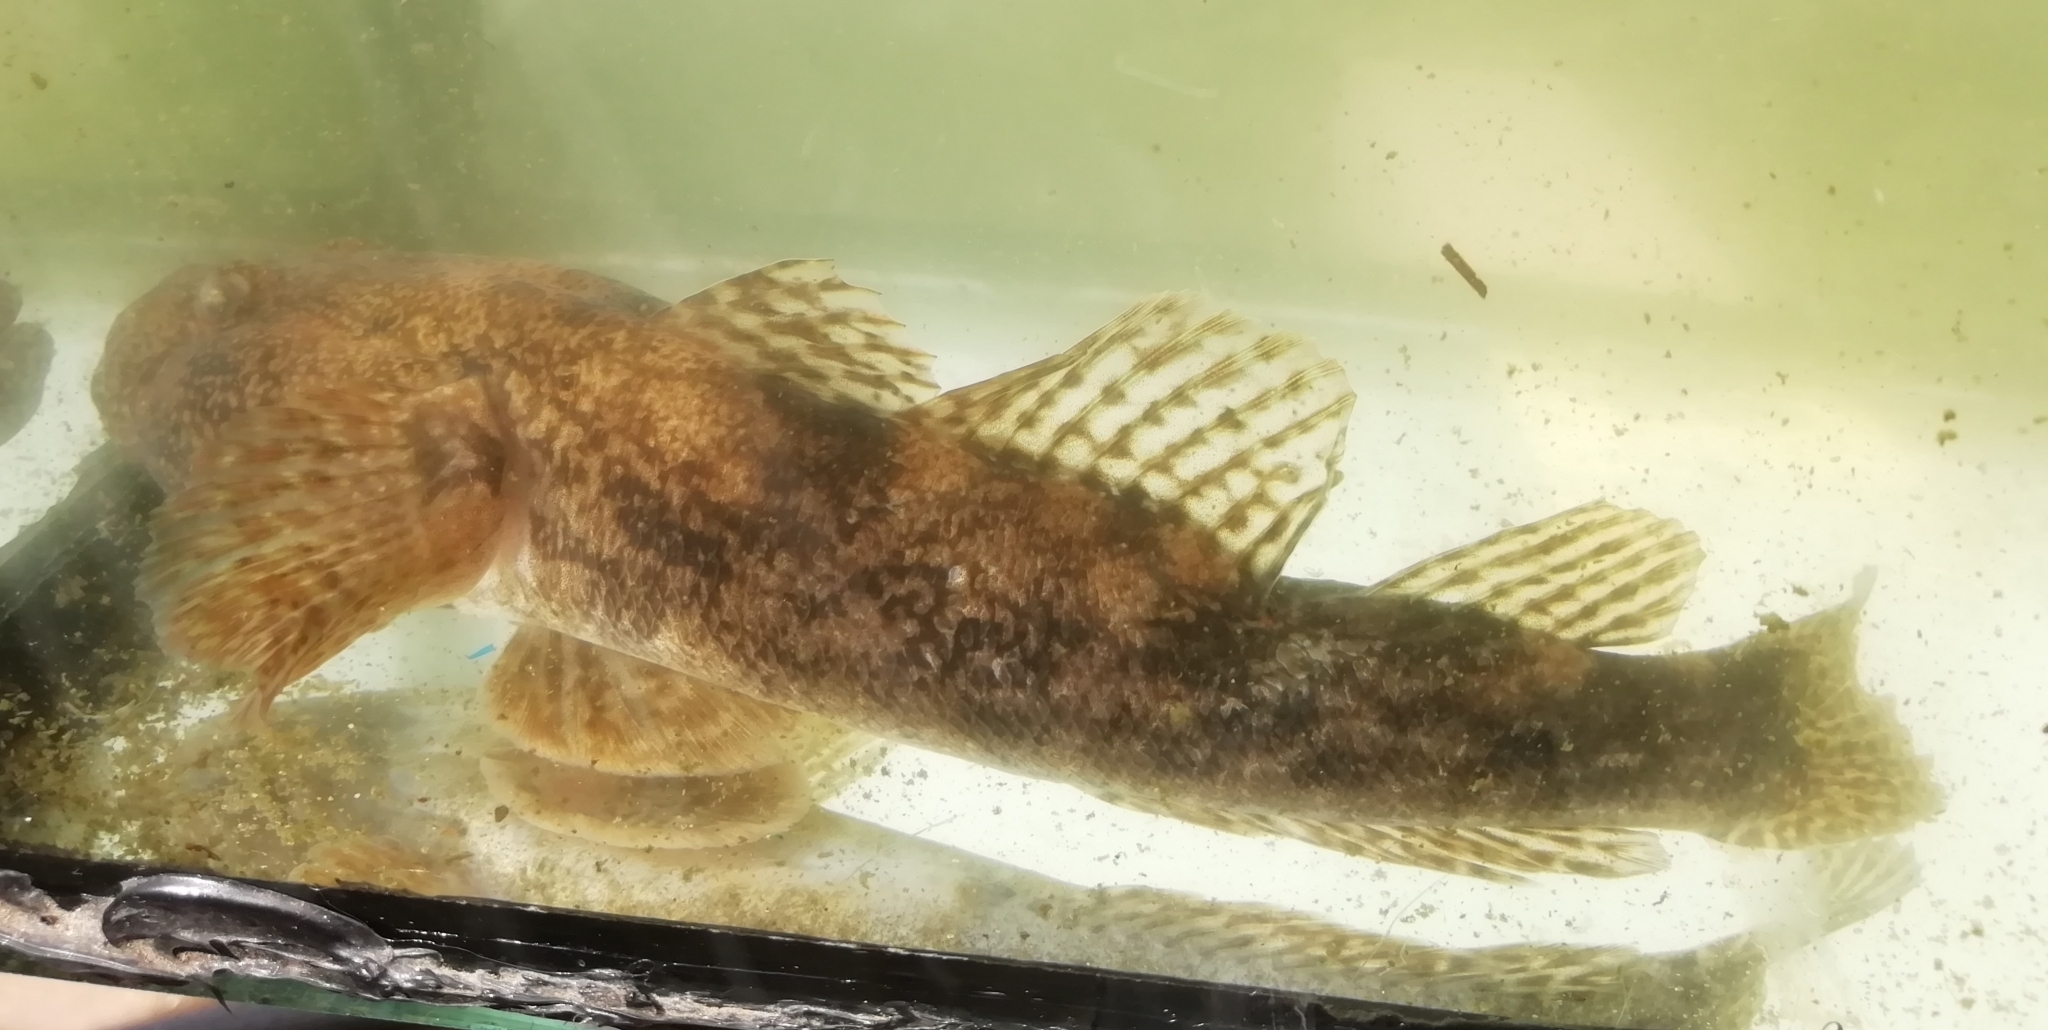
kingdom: Animalia
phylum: Chordata
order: Perciformes
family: Gobiidae
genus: Ponticola
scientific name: Ponticola gorlap
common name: Caspian bighead goby
